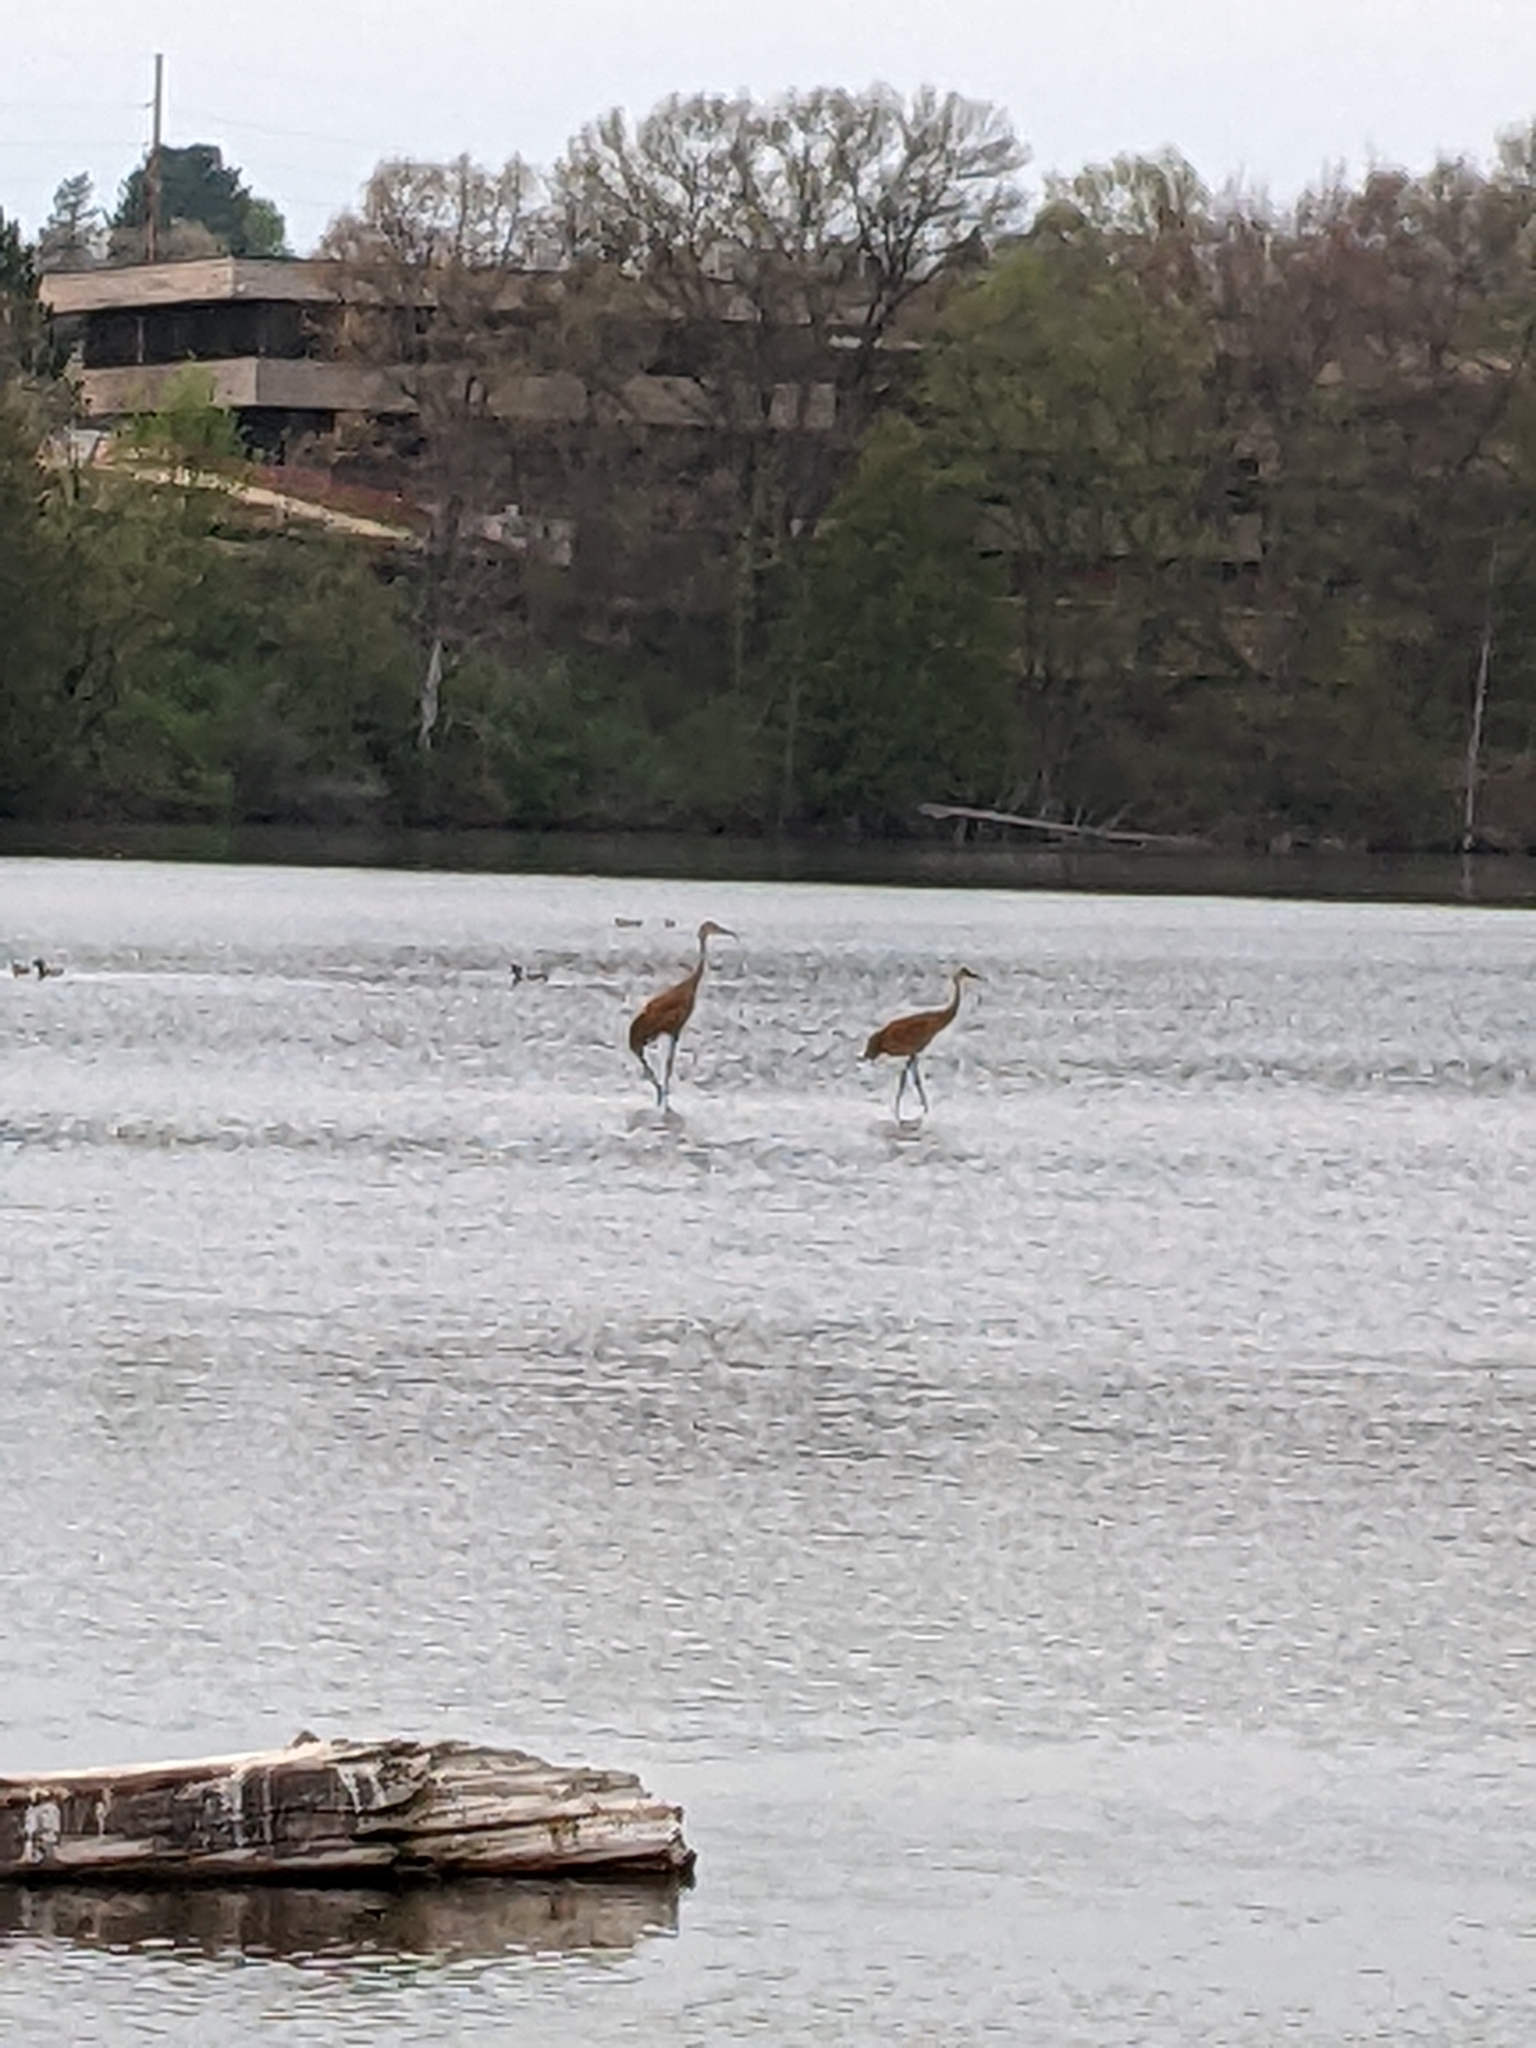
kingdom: Animalia
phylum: Chordata
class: Aves
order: Gruiformes
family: Gruidae
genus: Grus
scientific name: Grus canadensis
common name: Sandhill crane
